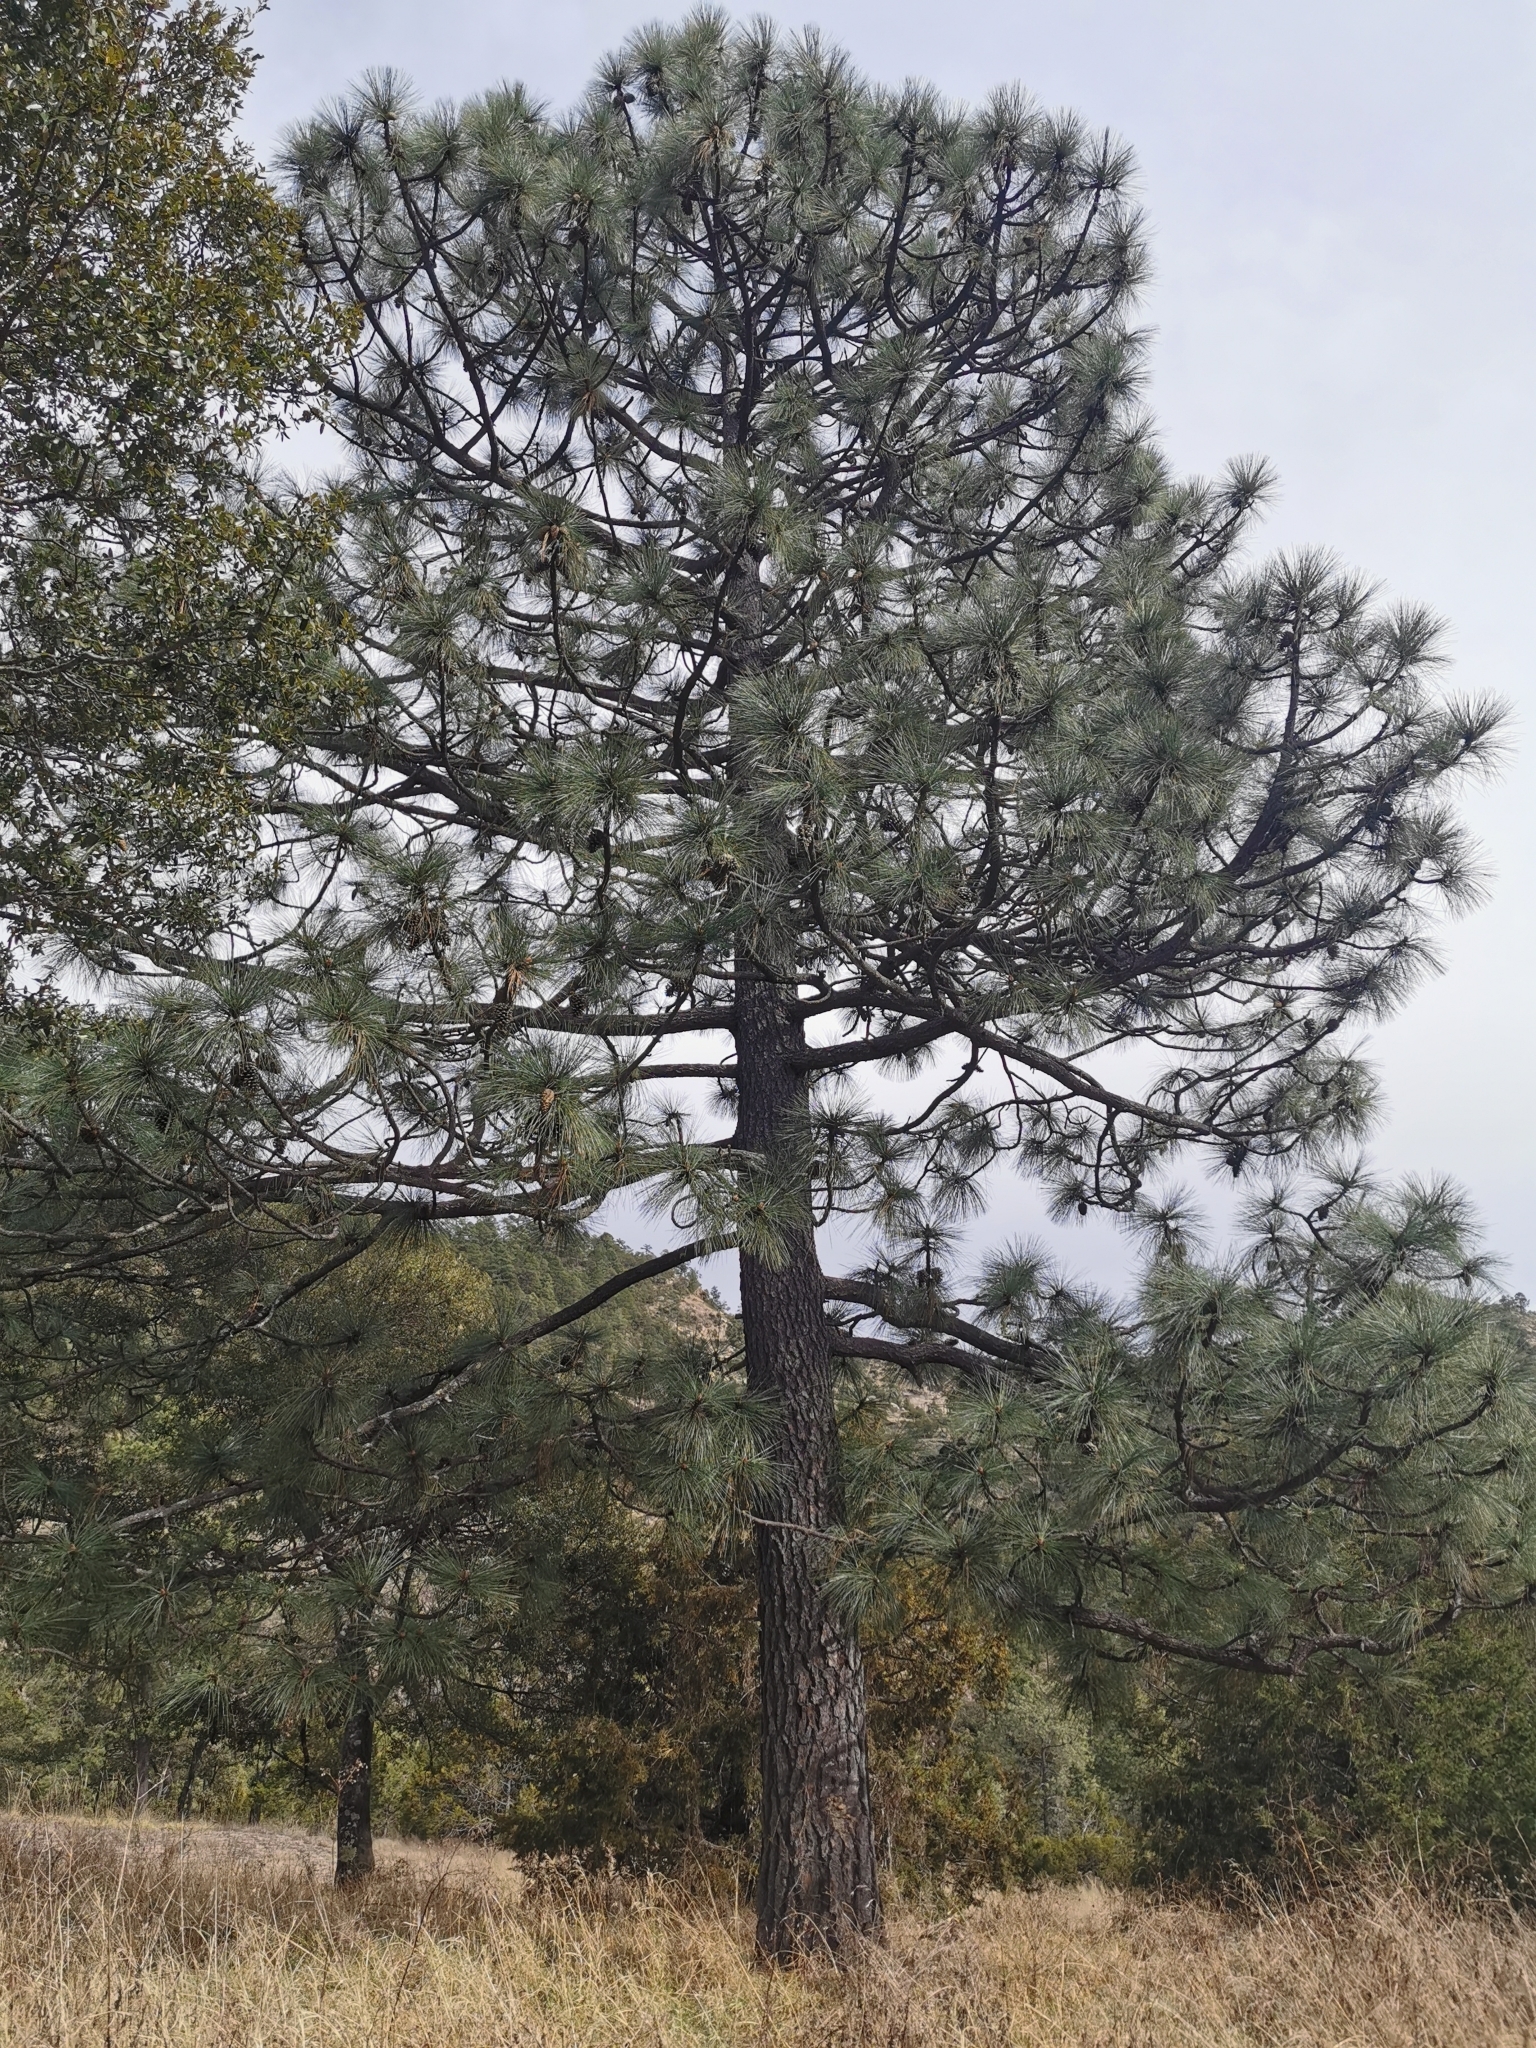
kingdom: Plantae
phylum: Tracheophyta
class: Pinopsida
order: Pinales
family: Pinaceae
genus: Pinus
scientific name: Pinus engelmannii
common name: Apache pine
